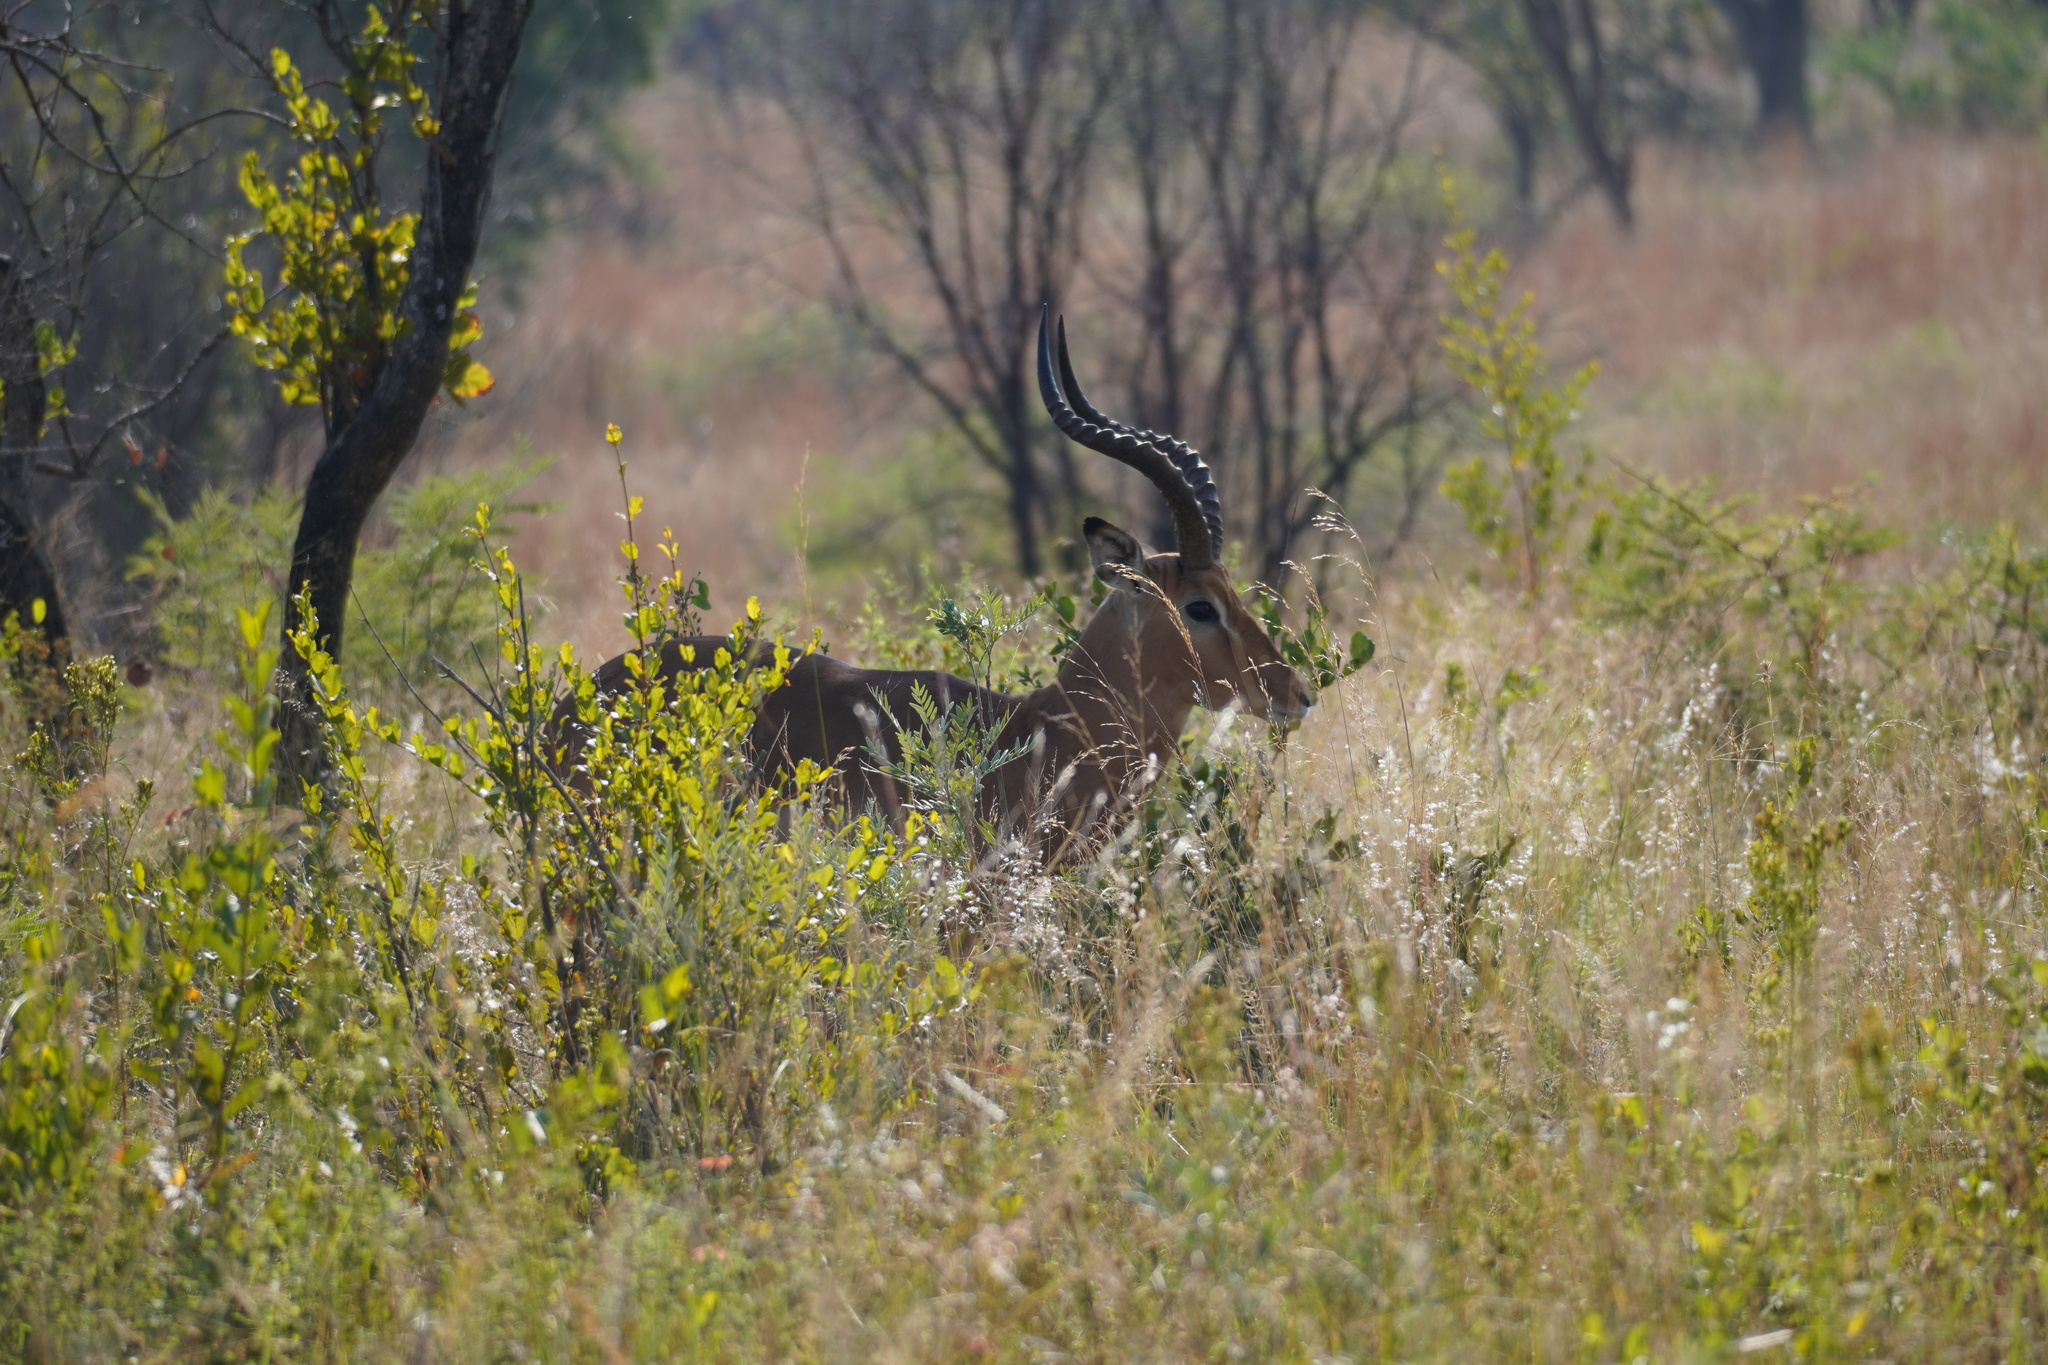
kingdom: Animalia
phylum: Chordata
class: Mammalia
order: Artiodactyla
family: Bovidae
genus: Aepyceros
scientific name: Aepyceros melampus
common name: Impala
